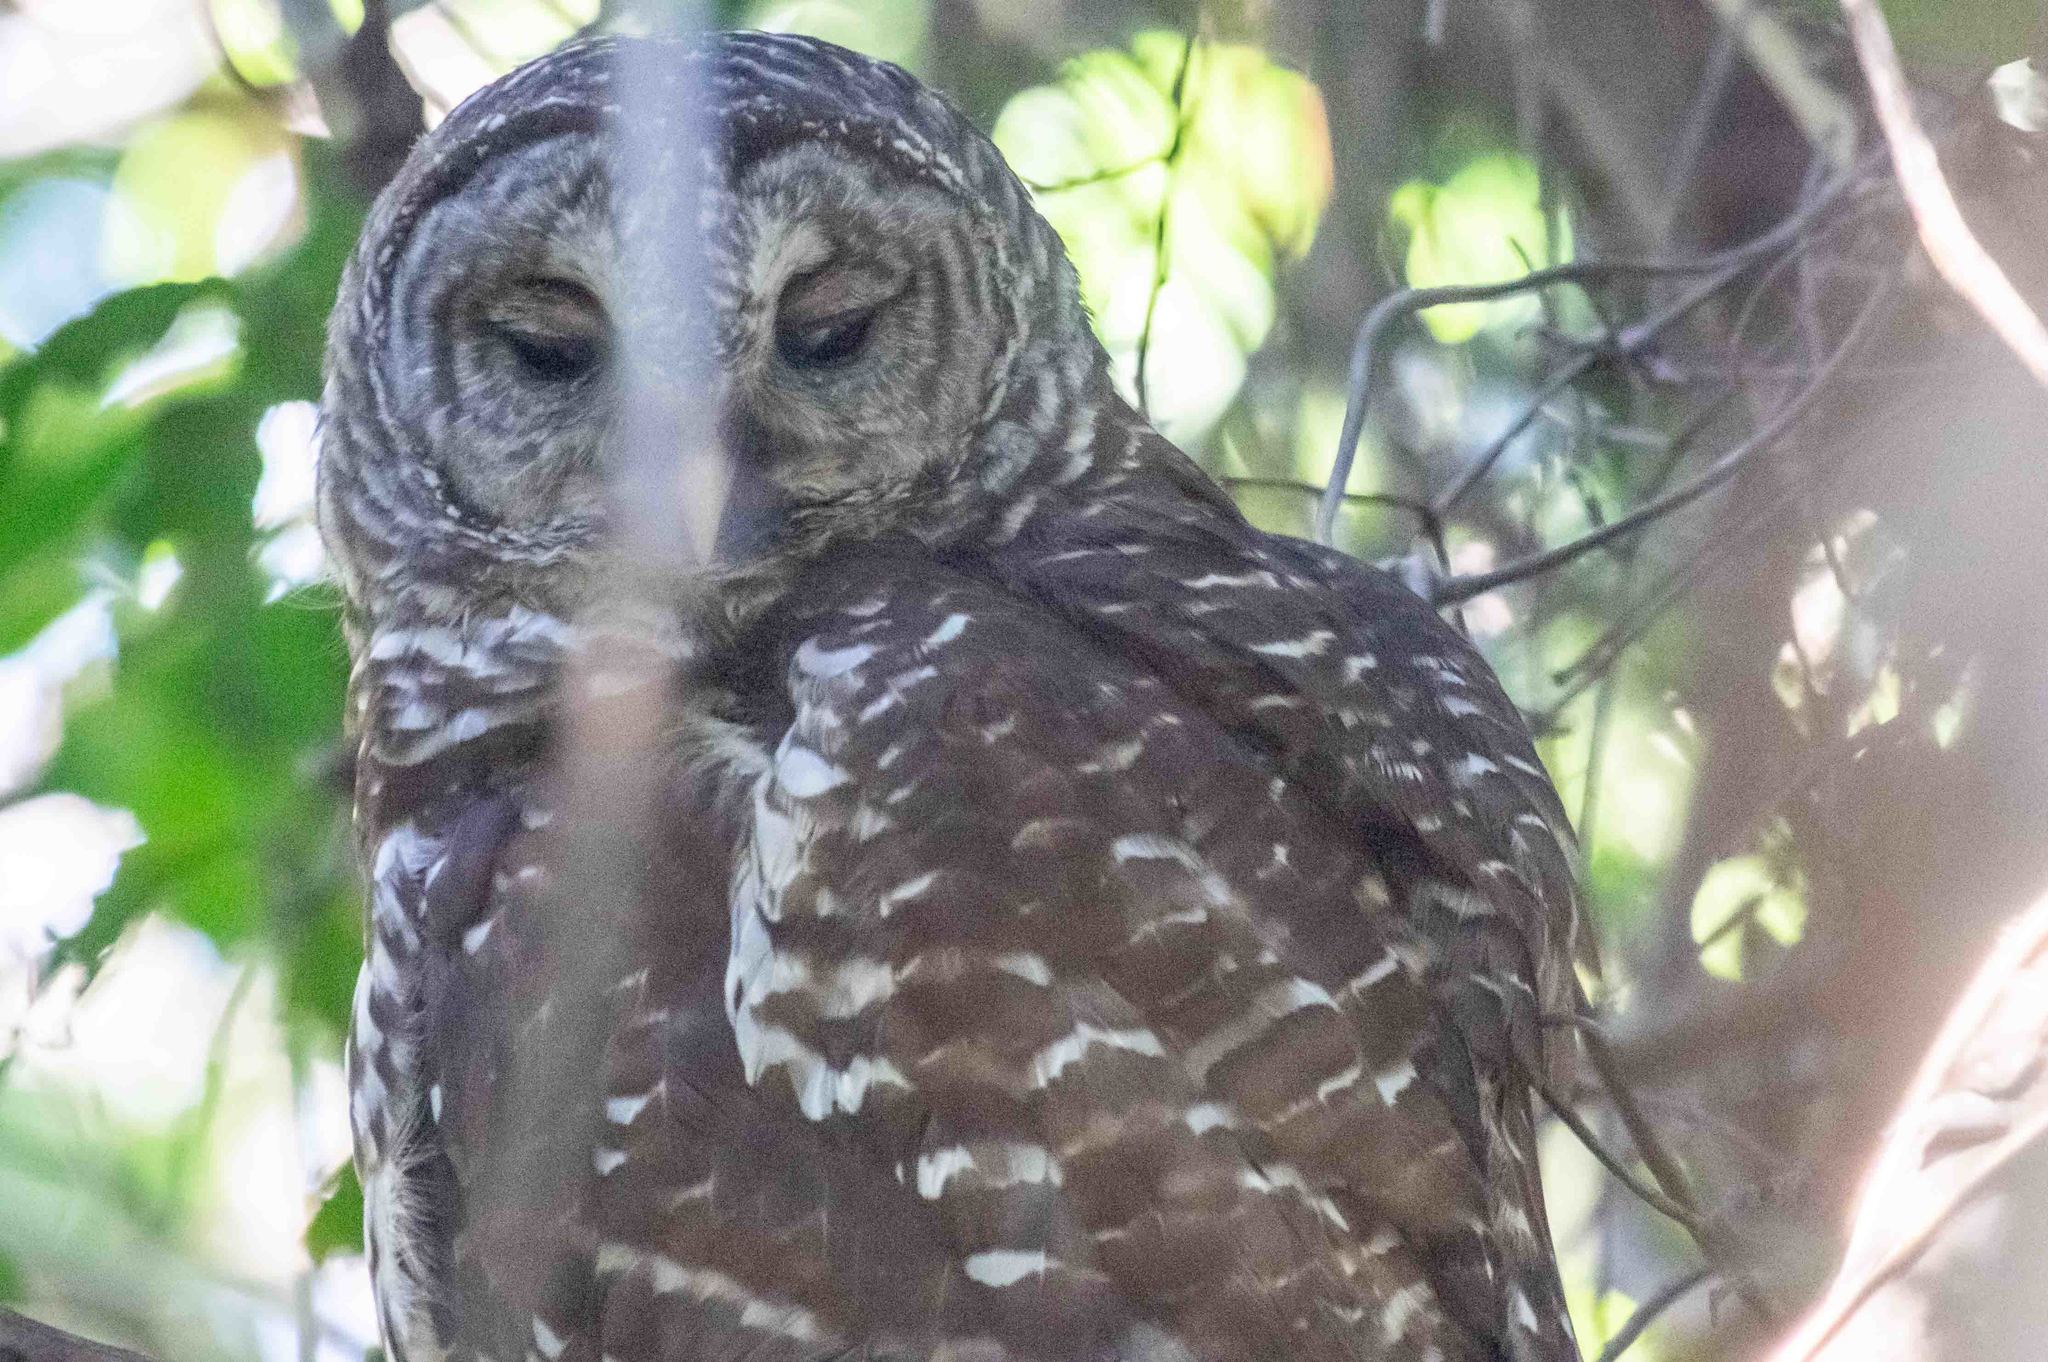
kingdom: Animalia
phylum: Chordata
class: Aves
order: Strigiformes
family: Strigidae
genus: Strix
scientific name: Strix varia
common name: Barred owl
